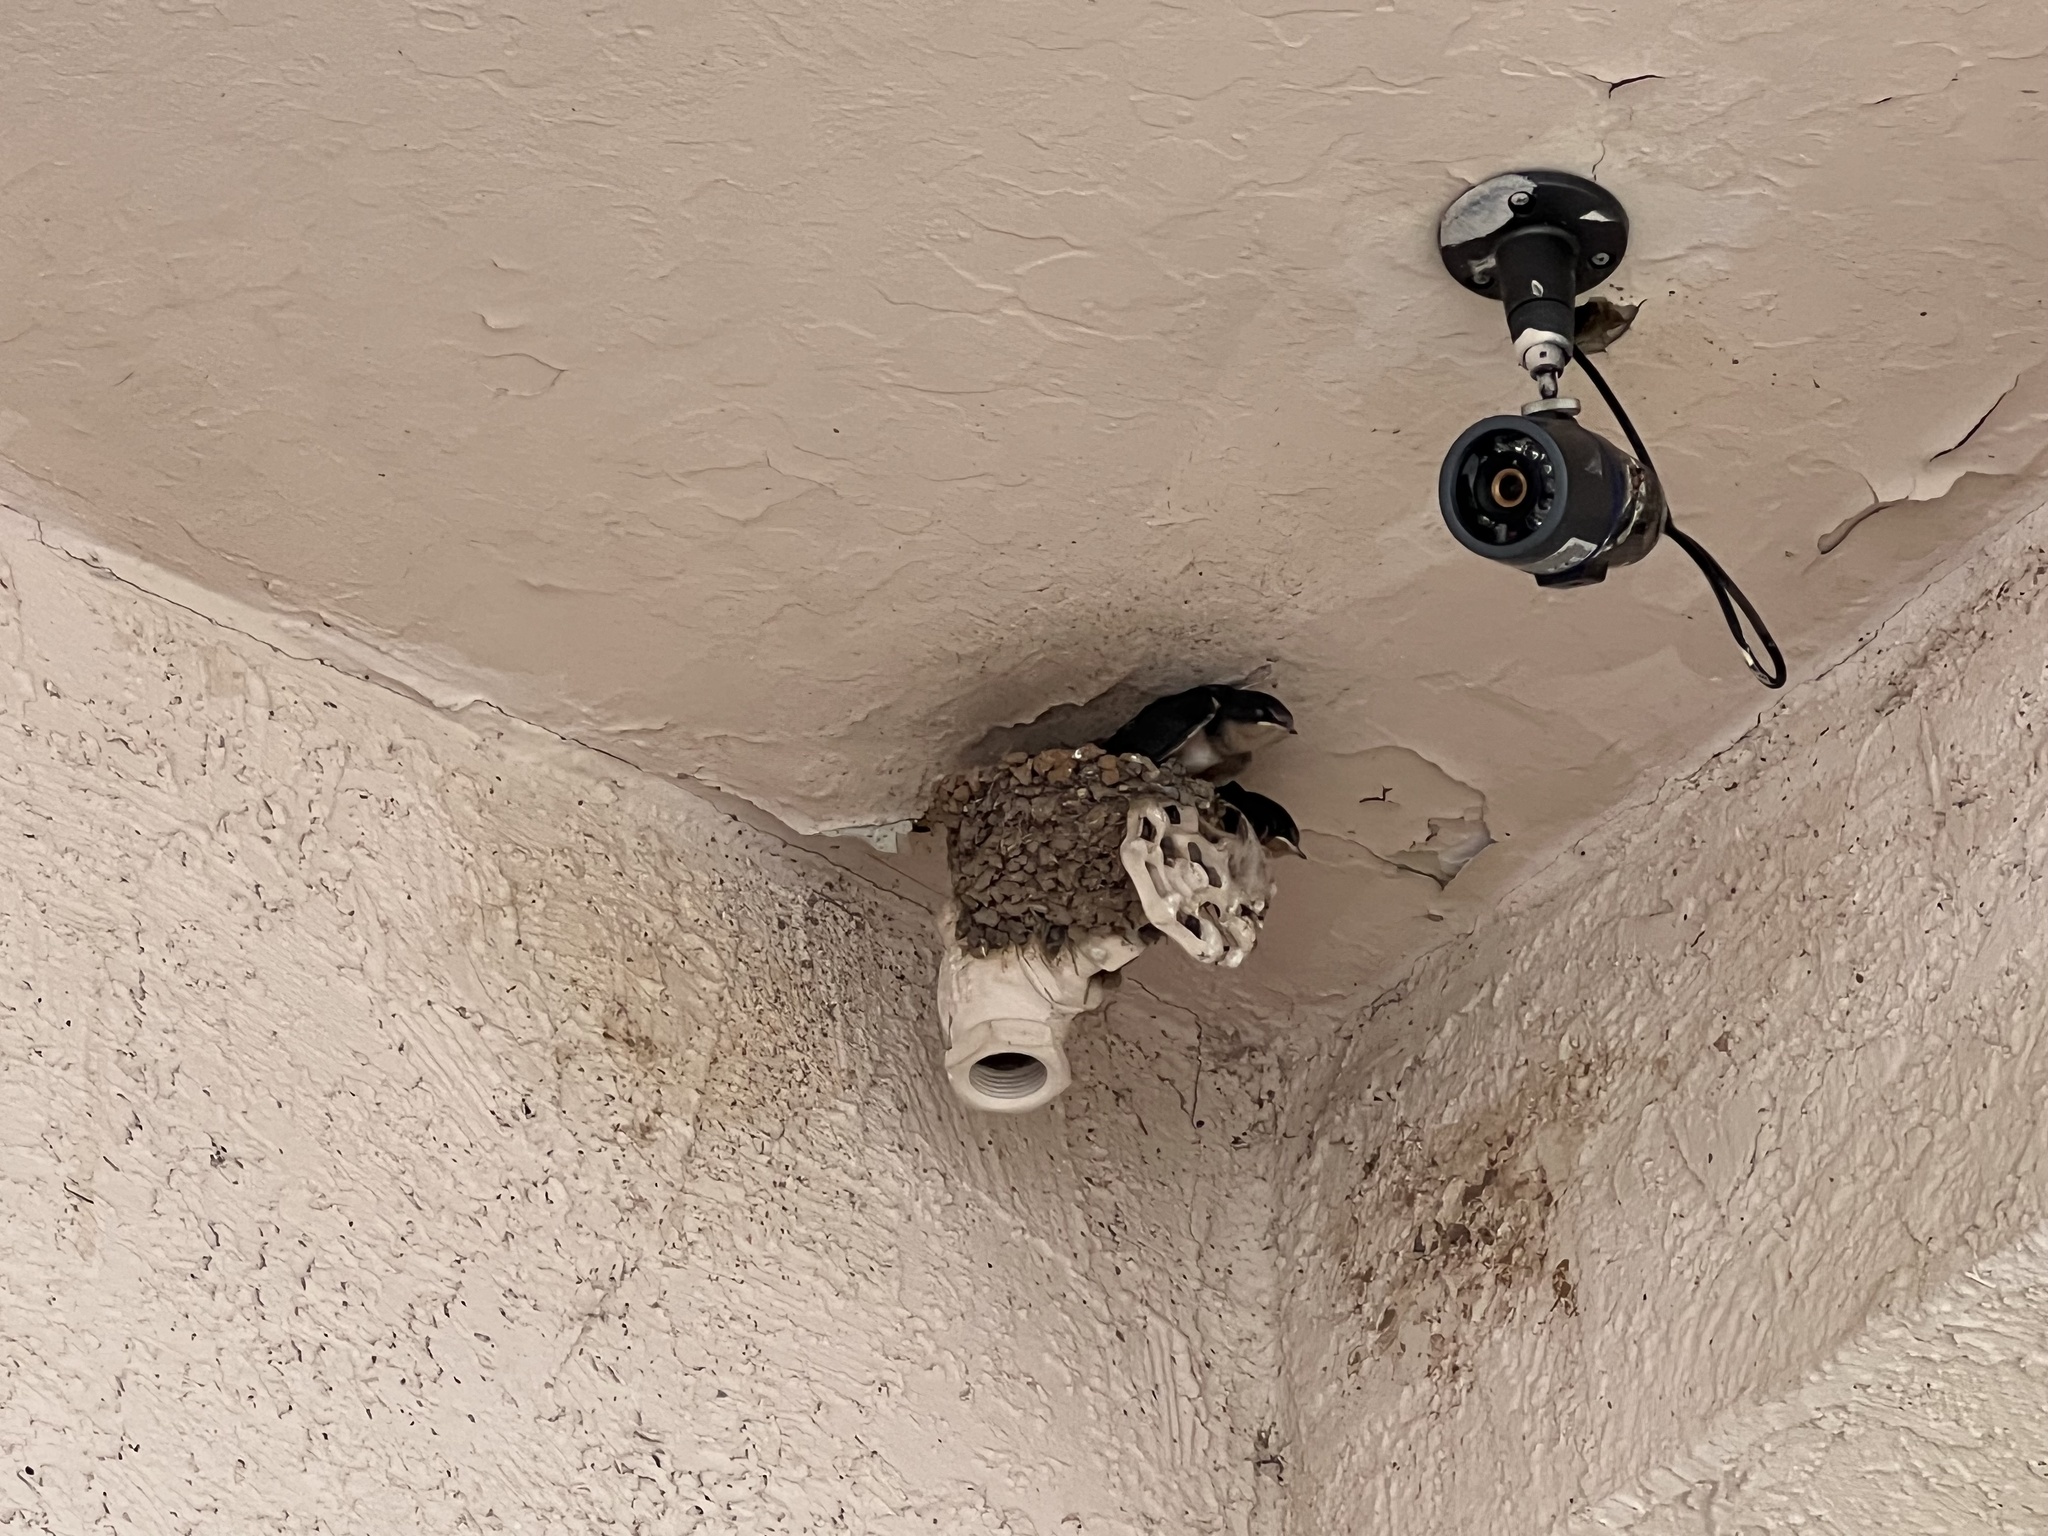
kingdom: Animalia
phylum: Chordata
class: Aves
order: Passeriformes
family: Hirundinidae
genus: Hirundo
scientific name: Hirundo rustica
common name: Barn swallow
